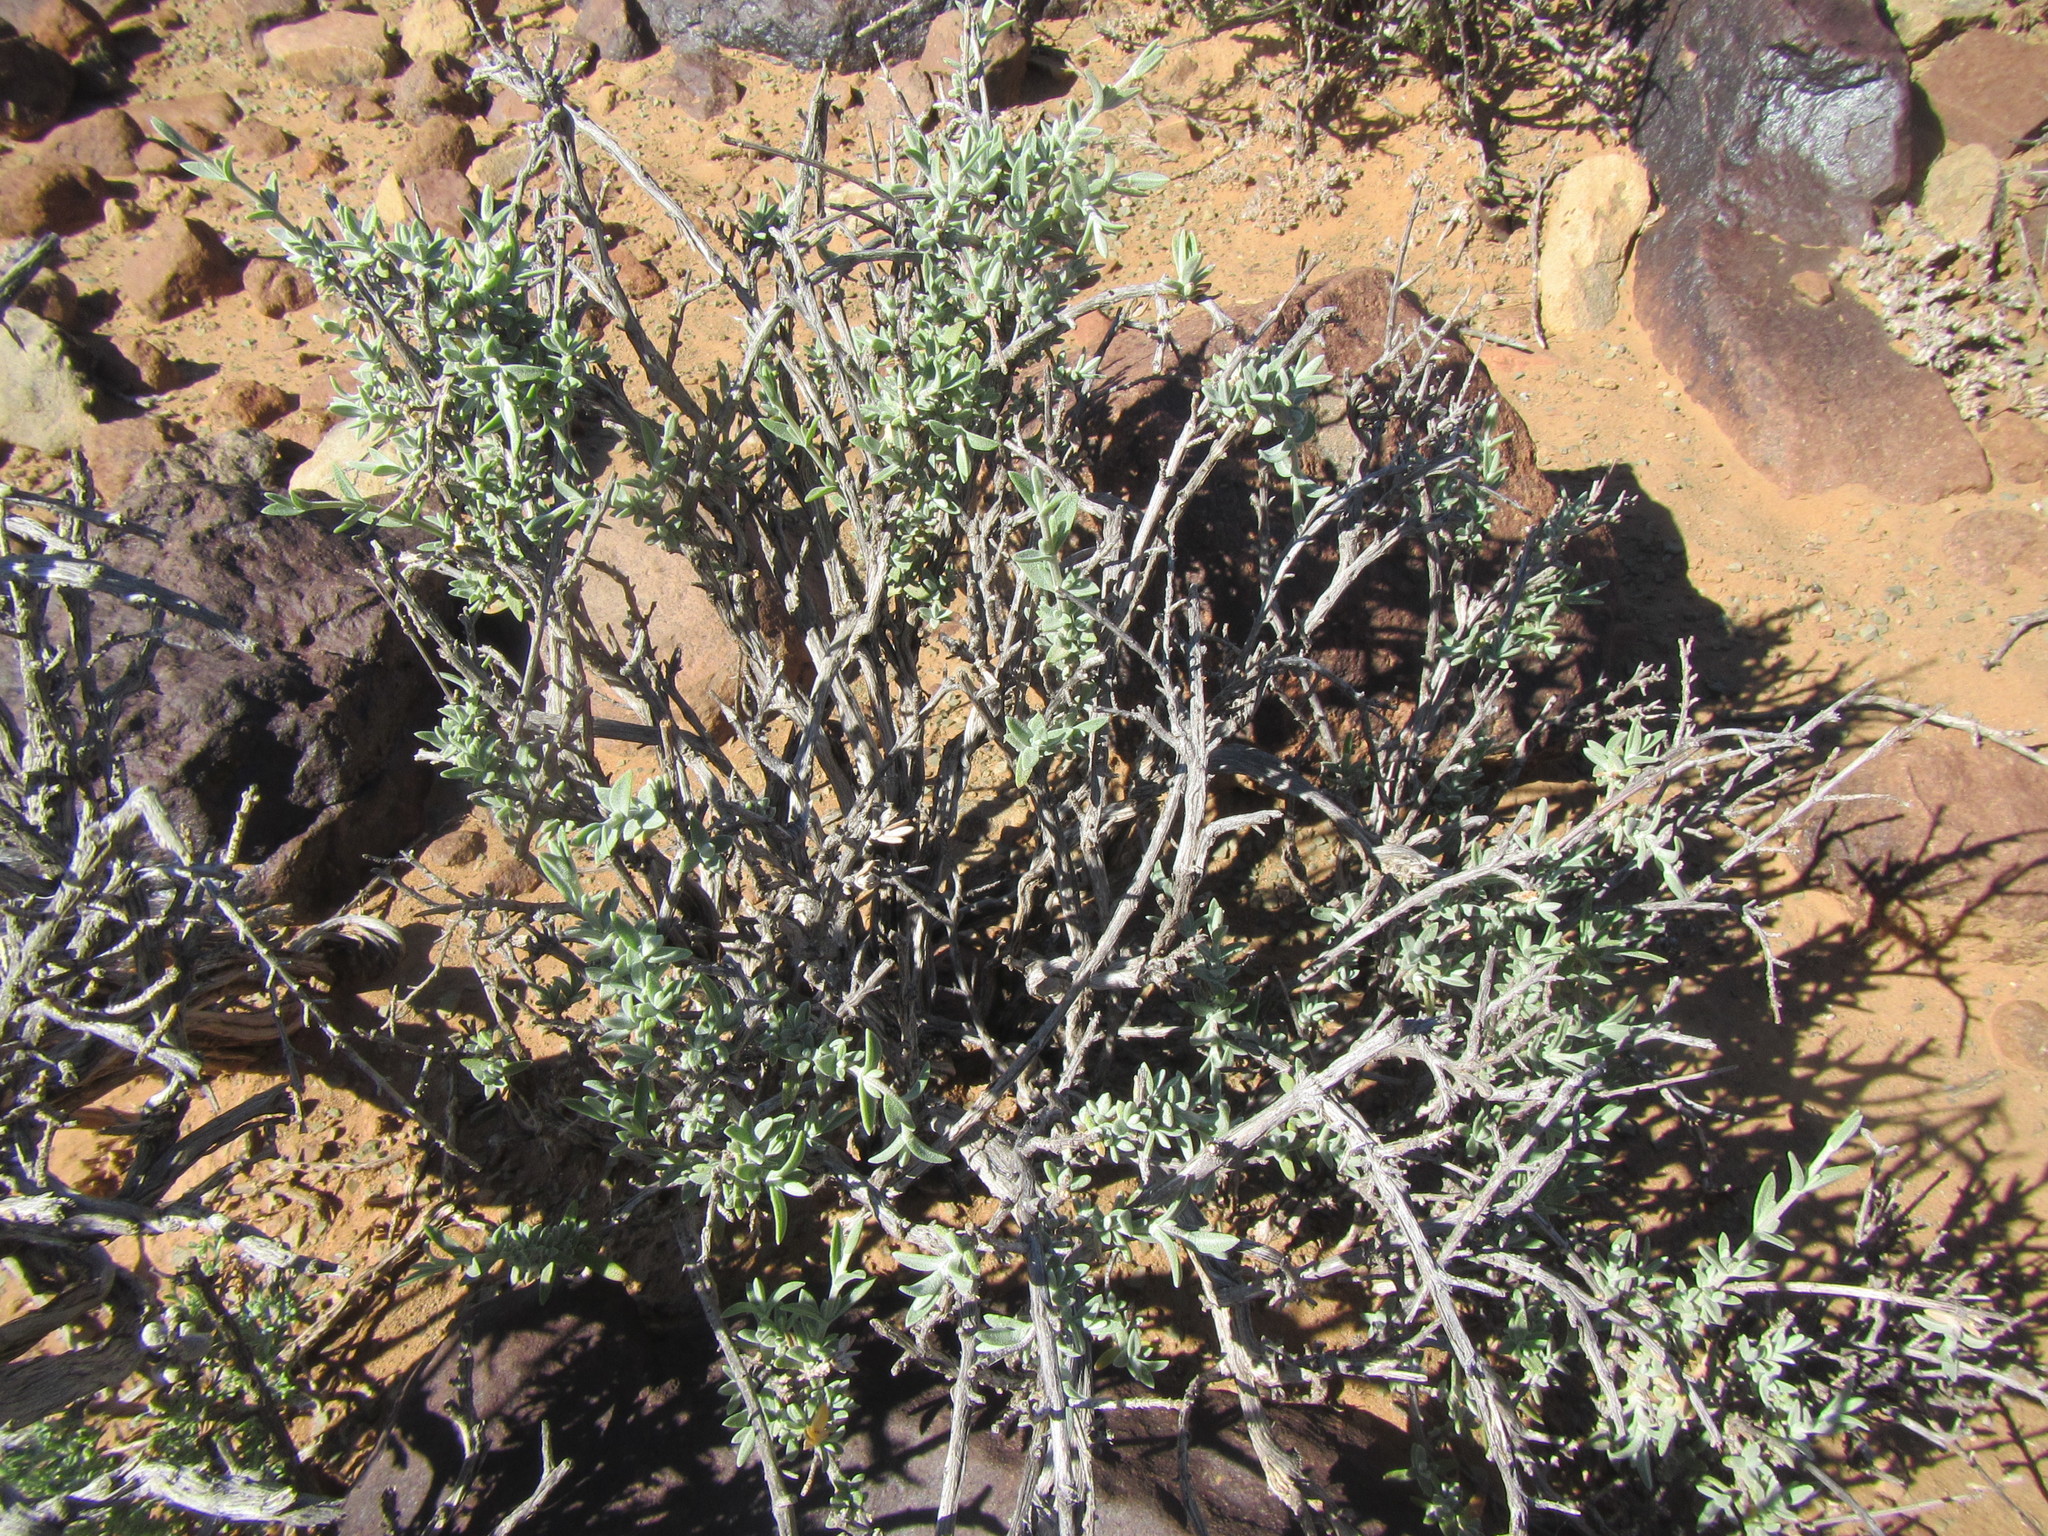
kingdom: Plantae
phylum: Tracheophyta
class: Magnoliopsida
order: Asterales
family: Asteraceae
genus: Pteronia
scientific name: Pteronia glauca
